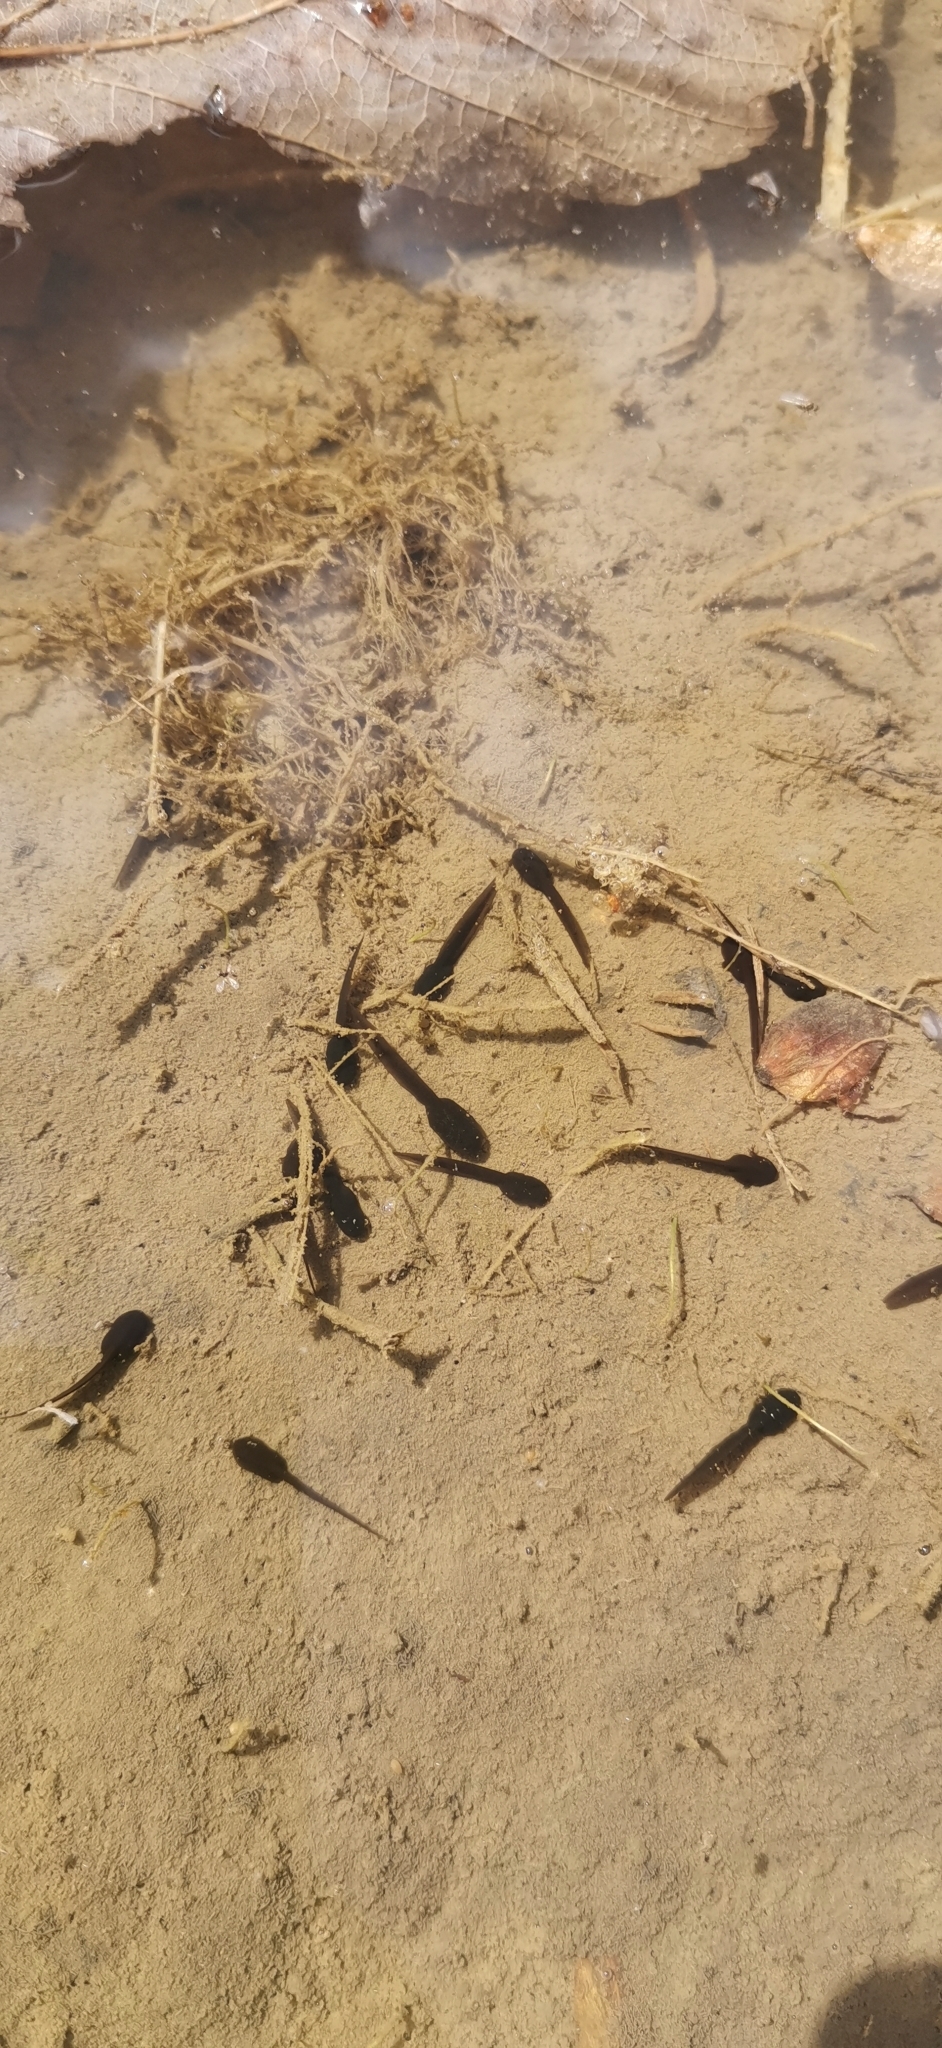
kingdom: Animalia
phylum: Chordata
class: Amphibia
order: Anura
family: Ranidae
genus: Rana
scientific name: Rana temporaria
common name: Common frog
